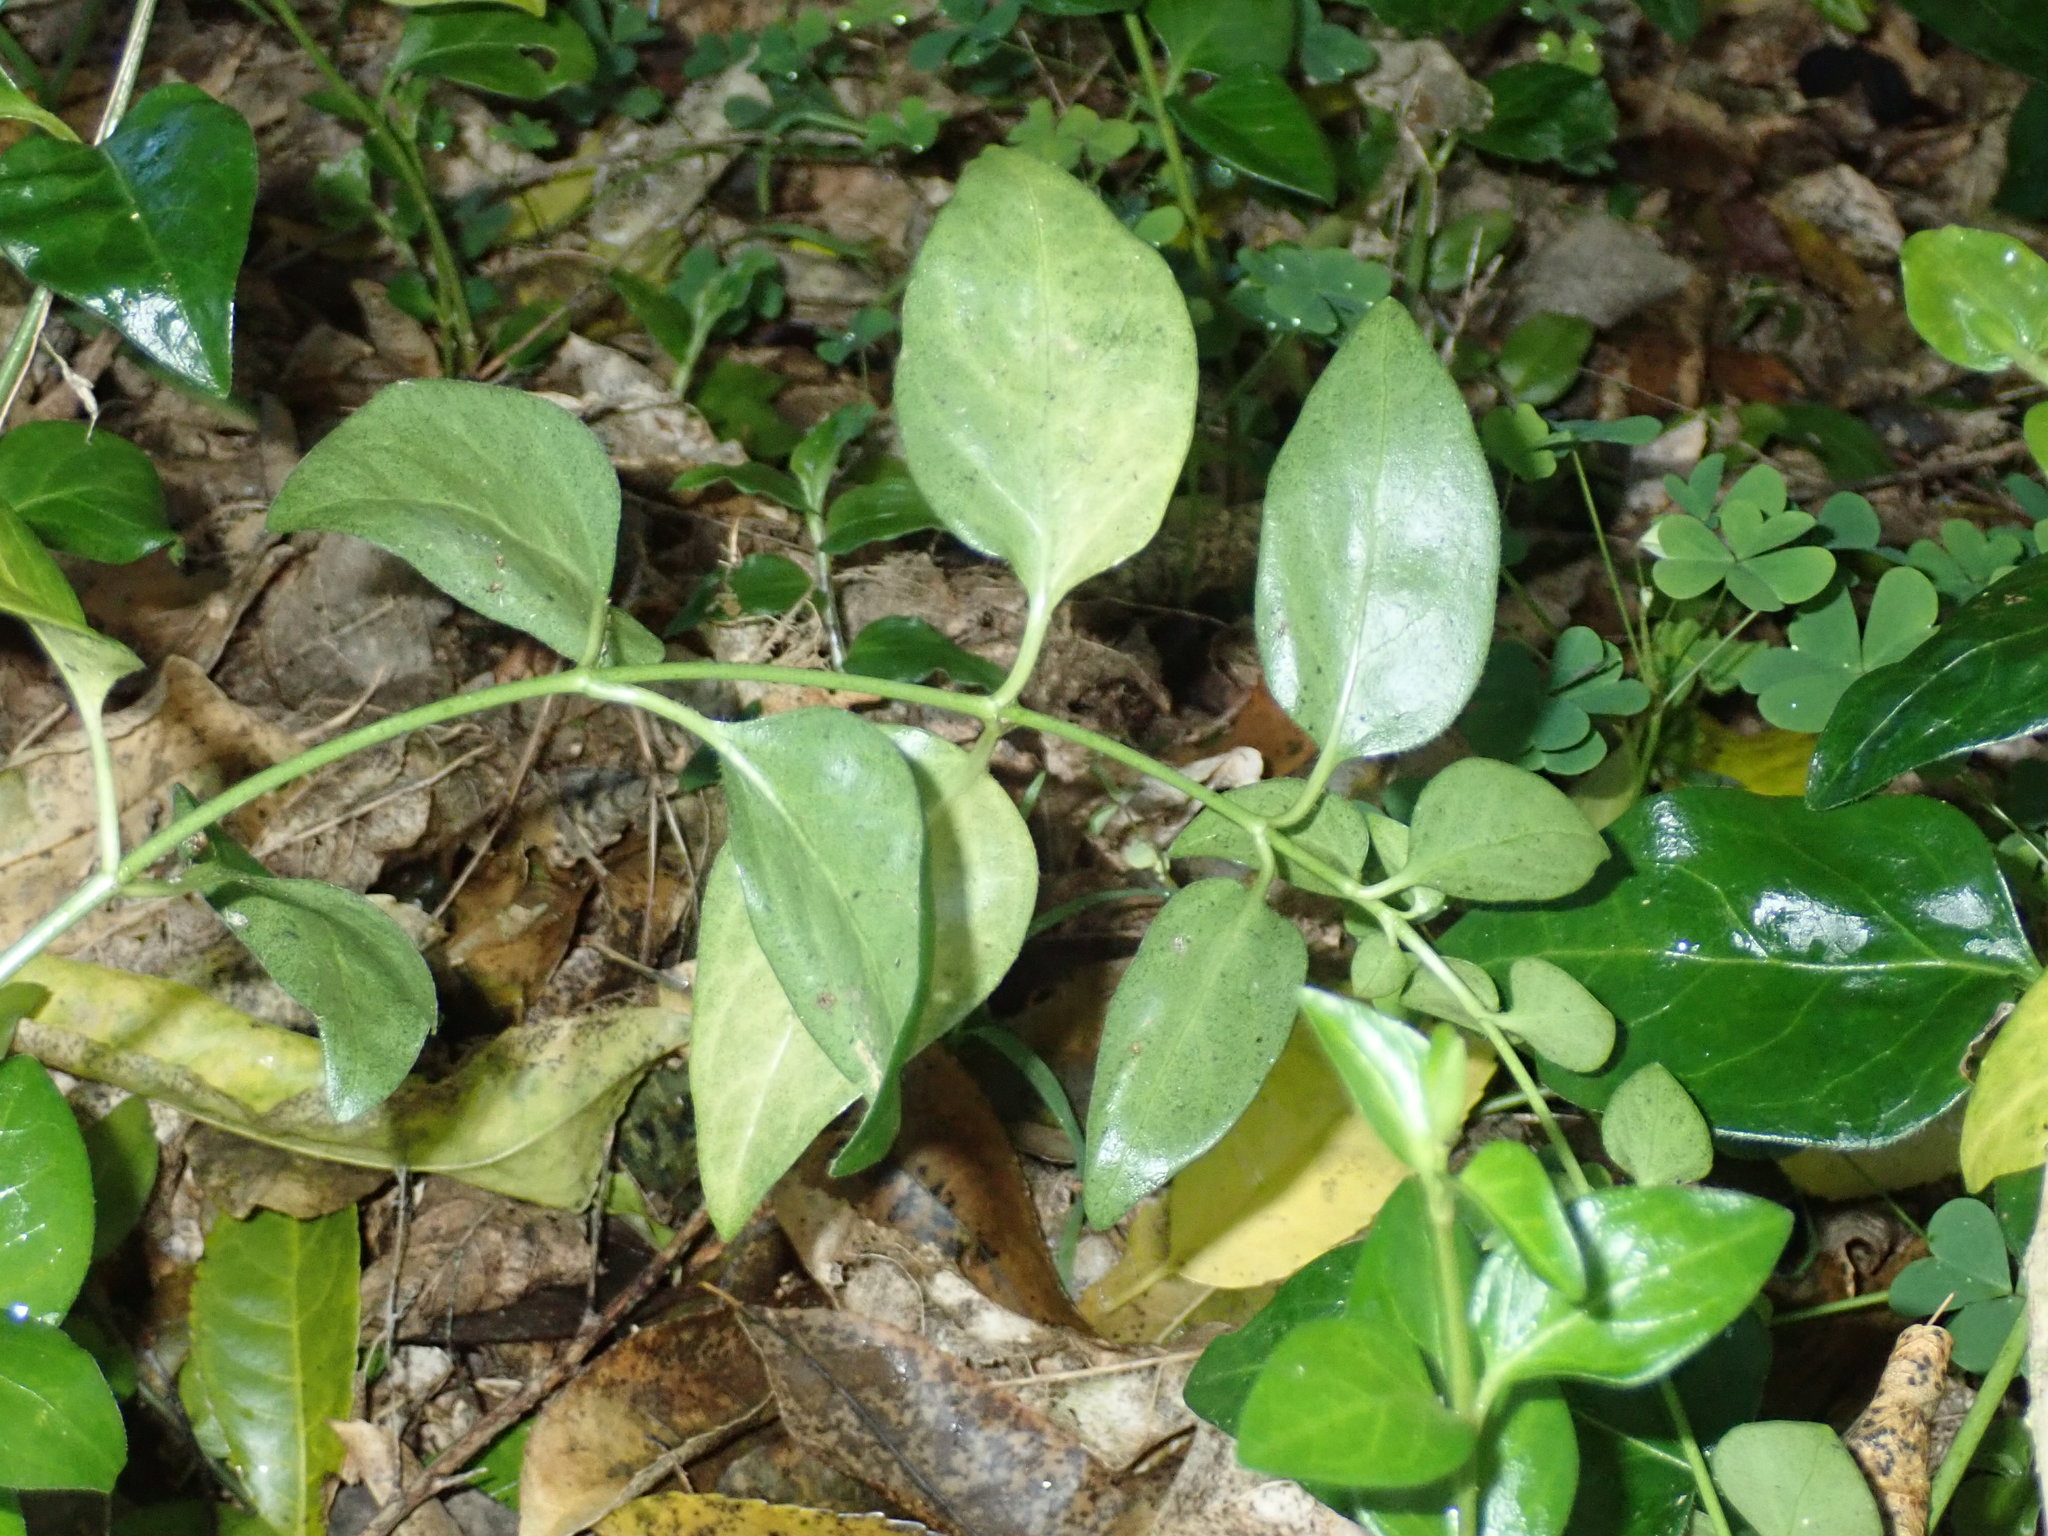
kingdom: Plantae
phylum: Tracheophyta
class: Magnoliopsida
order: Gentianales
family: Apocynaceae
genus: Vinca
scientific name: Vinca major
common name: Greater periwinkle
